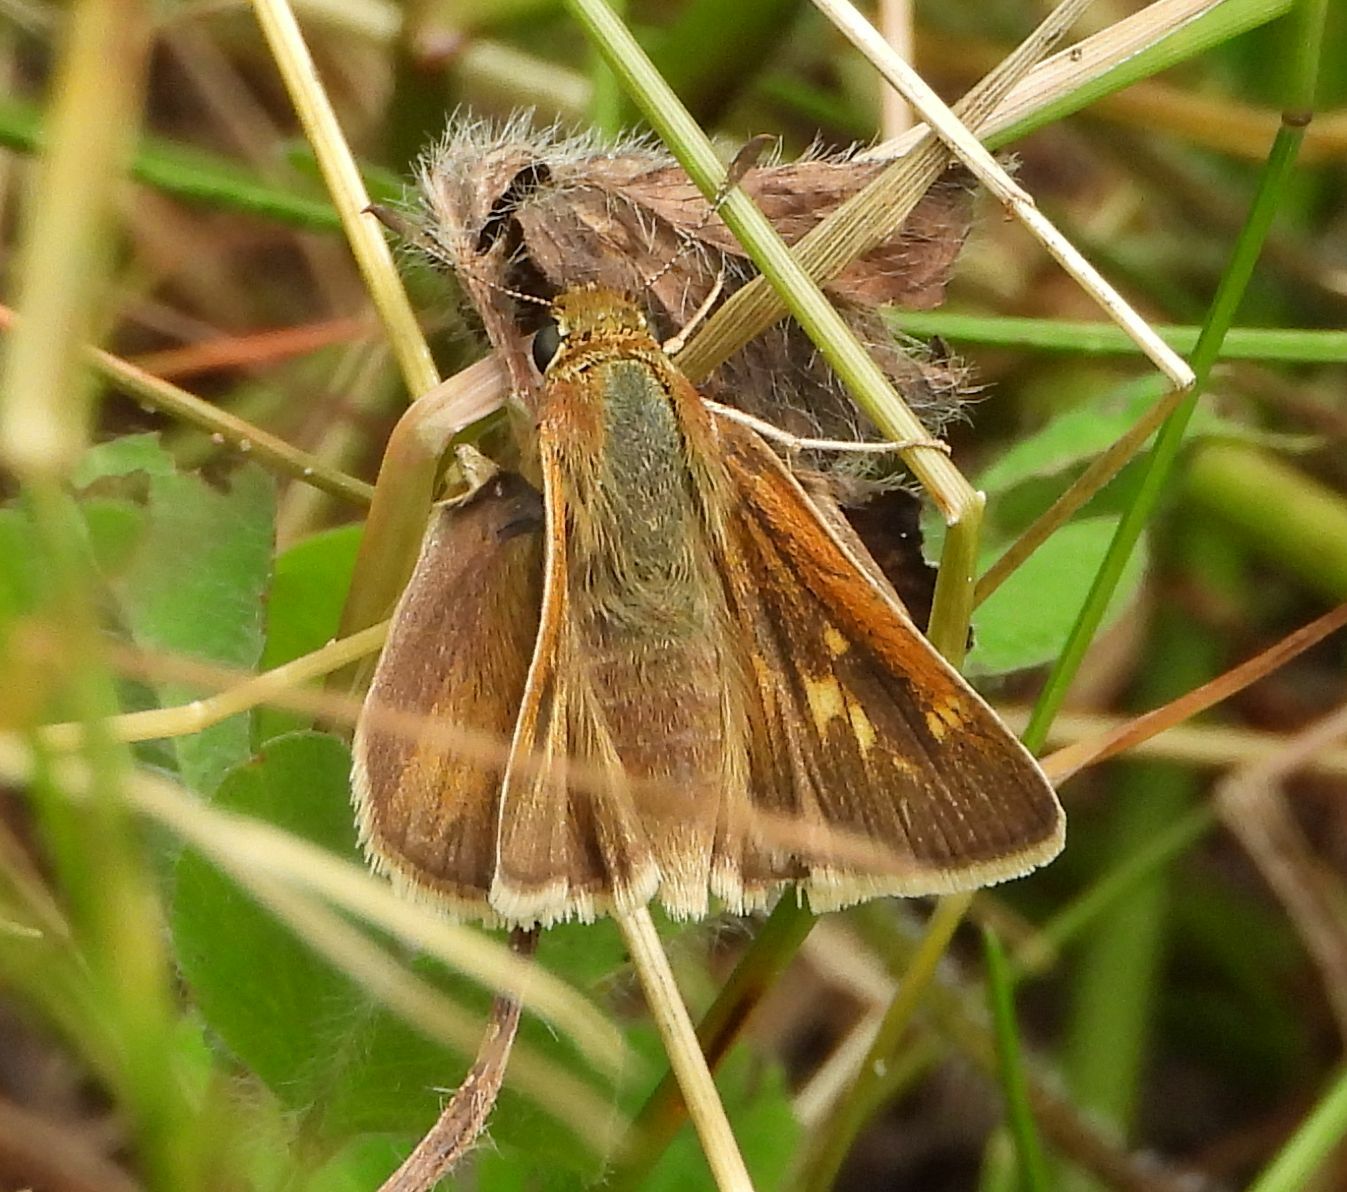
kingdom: Animalia
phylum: Arthropoda
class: Insecta
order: Lepidoptera
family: Hesperiidae
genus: Polites
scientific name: Polites origenes
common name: Crossline skipper
